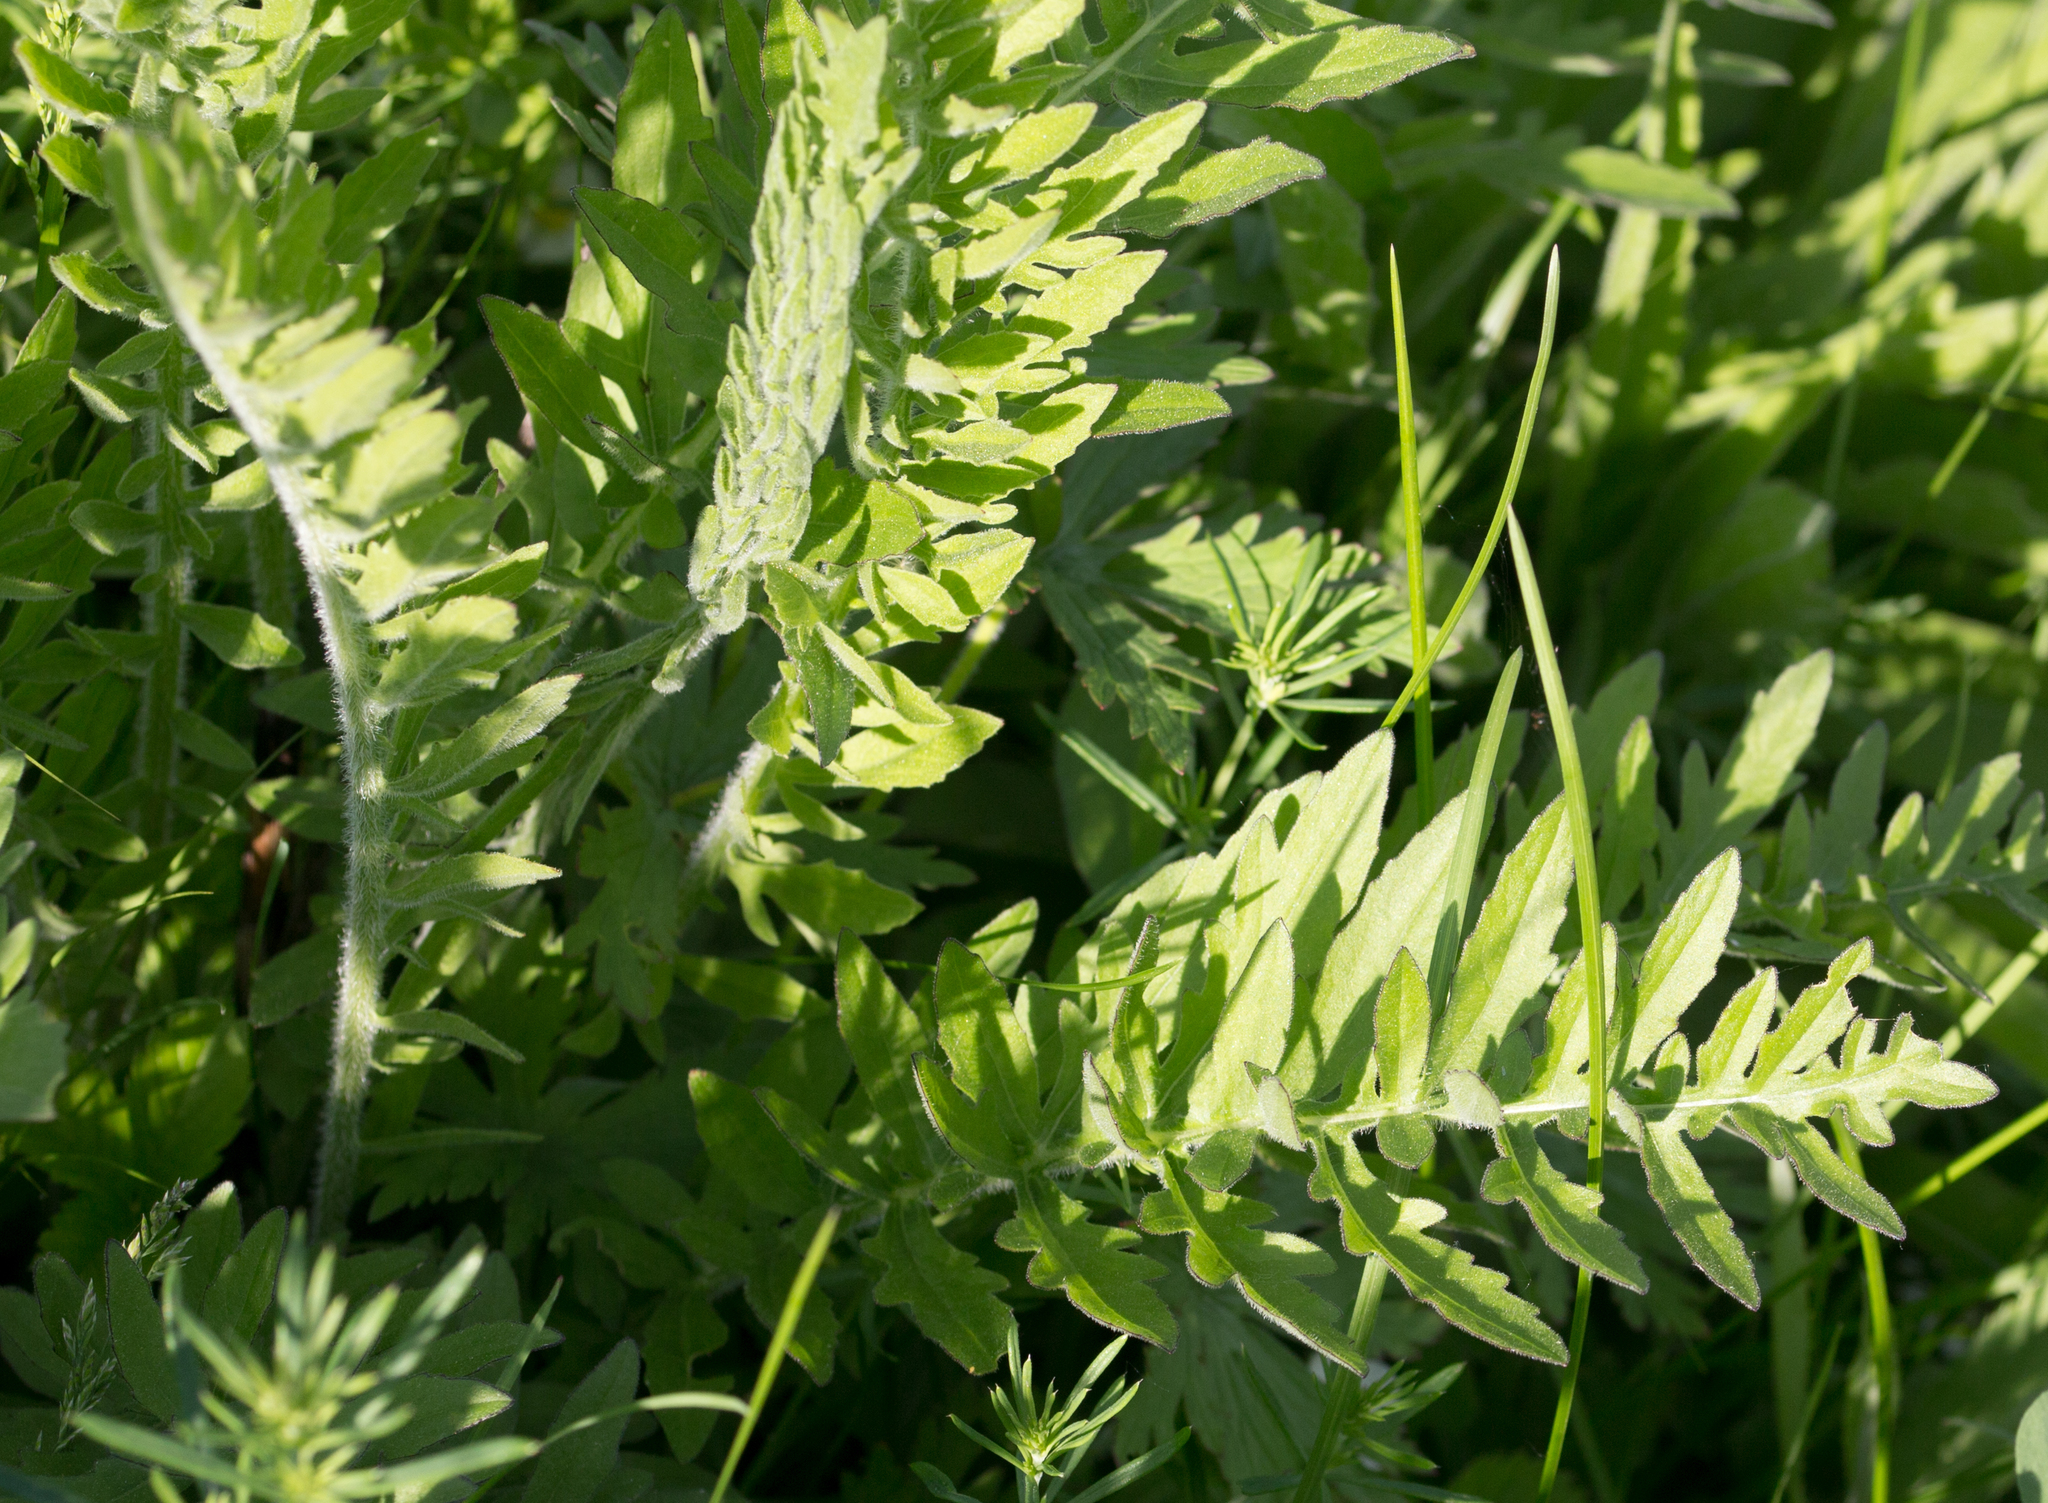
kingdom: Plantae
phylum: Tracheophyta
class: Magnoliopsida
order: Asterales
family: Asteraceae
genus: Centaurea
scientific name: Centaurea scabiosa
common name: Greater knapweed
